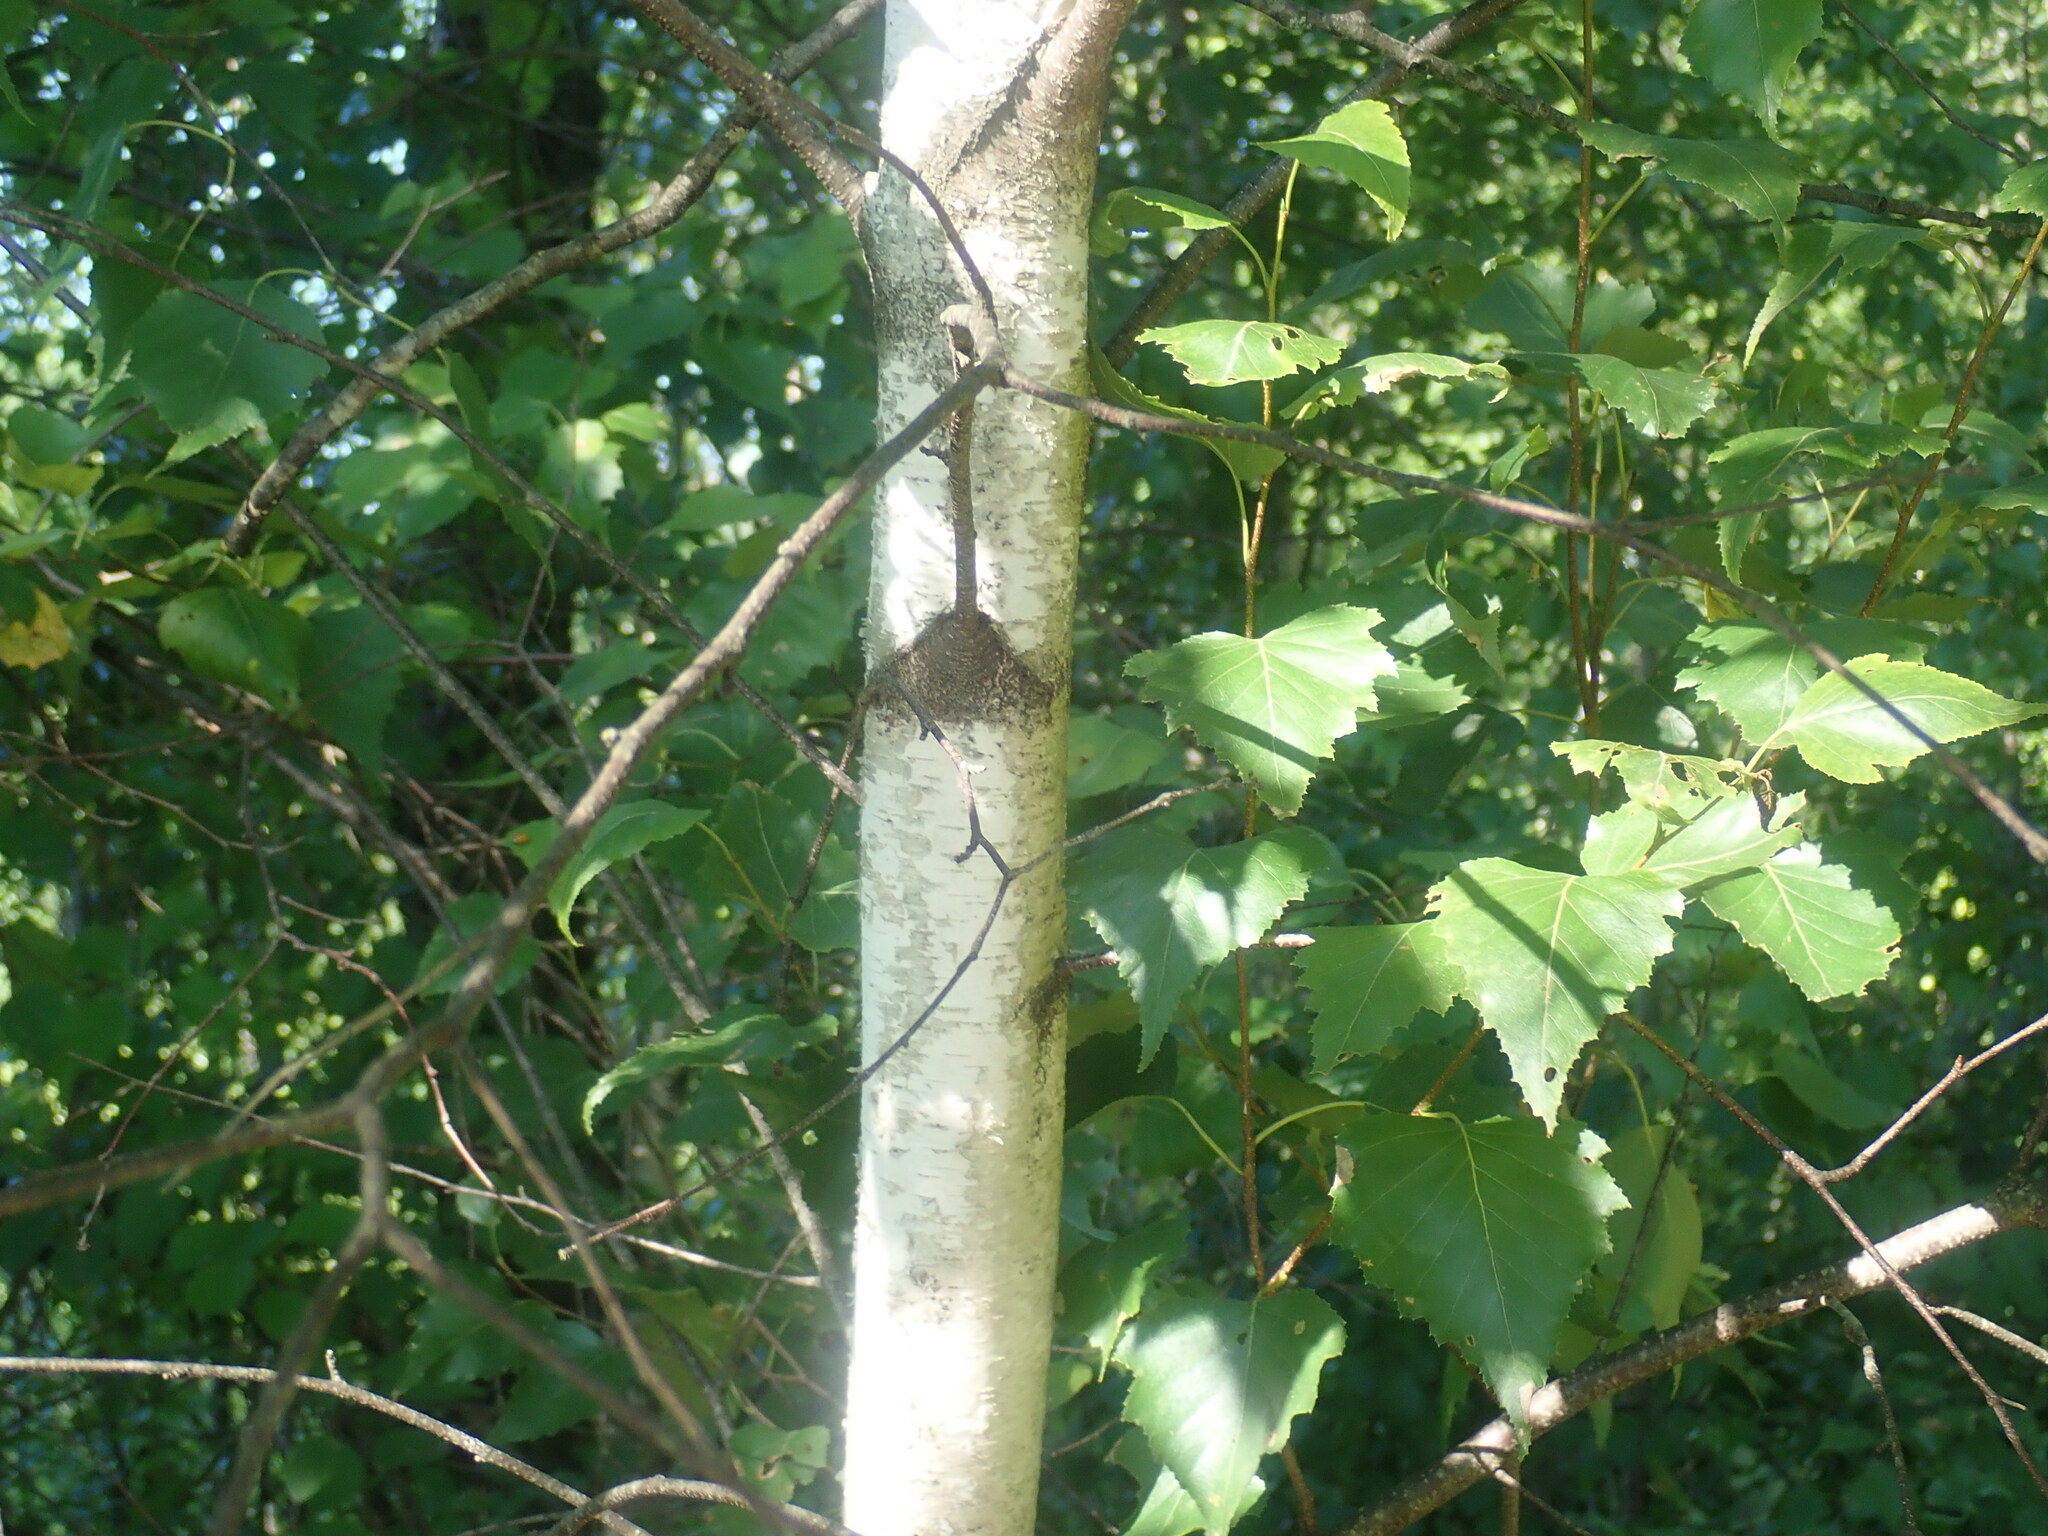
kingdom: Plantae
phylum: Tracheophyta
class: Magnoliopsida
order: Fagales
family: Betulaceae
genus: Betula
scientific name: Betula populifolia
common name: Fire birch
